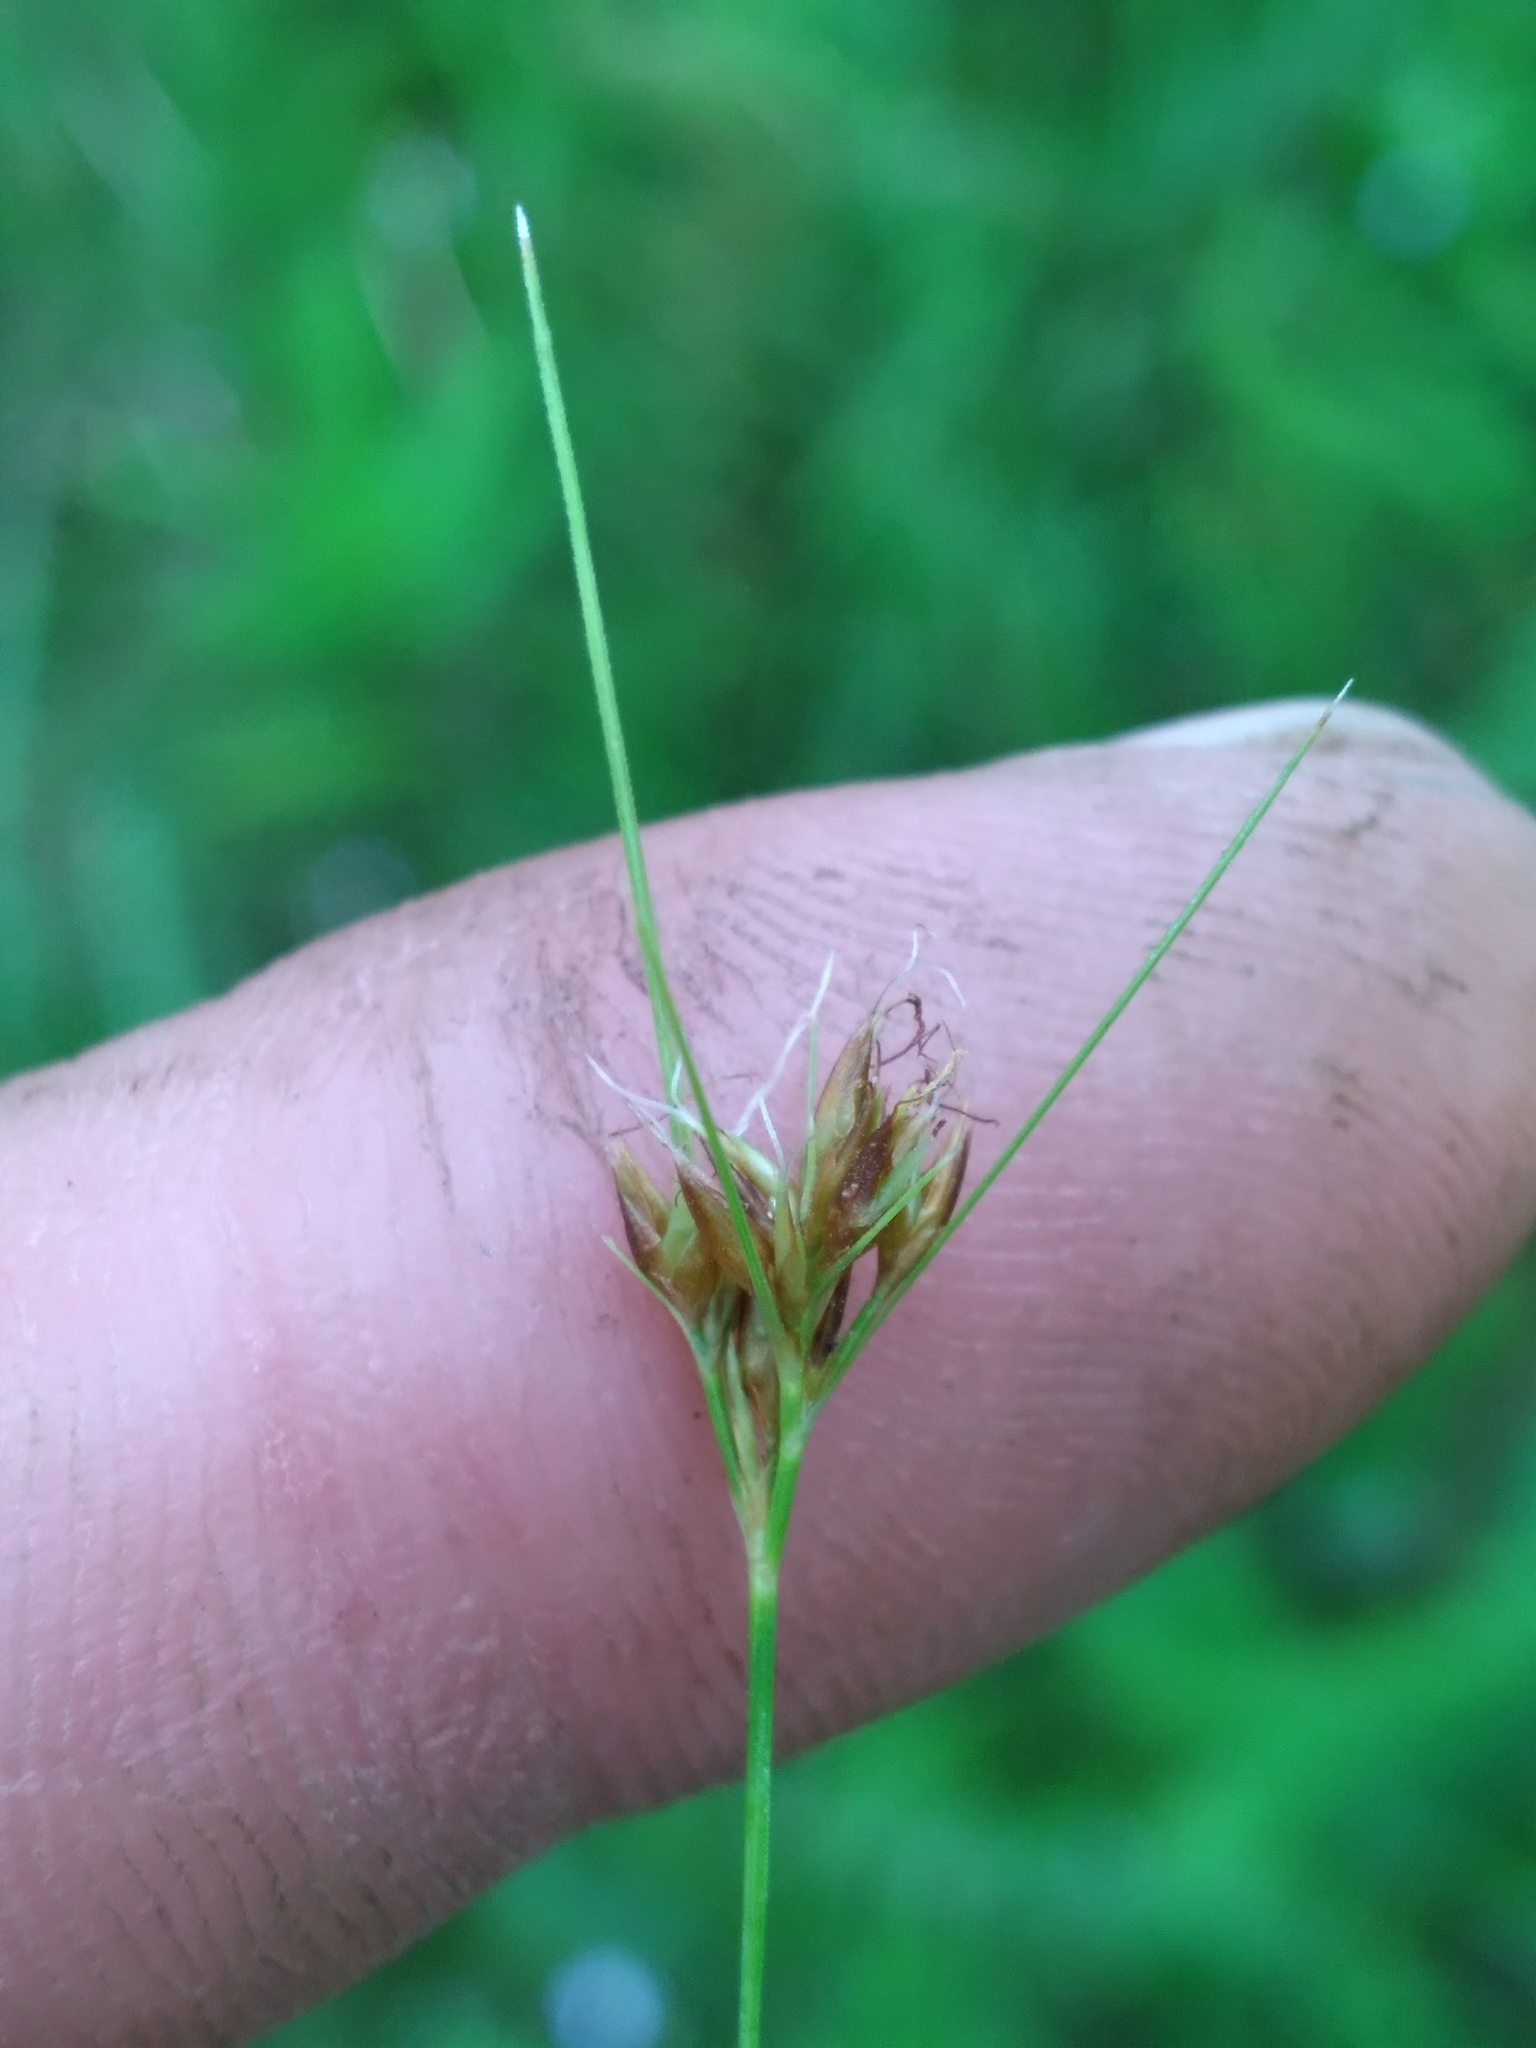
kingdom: Plantae
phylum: Tracheophyta
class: Liliopsida
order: Poales
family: Cyperaceae
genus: Rhynchospora
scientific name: Rhynchospora fascicularis
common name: Fascicled beak sedge
